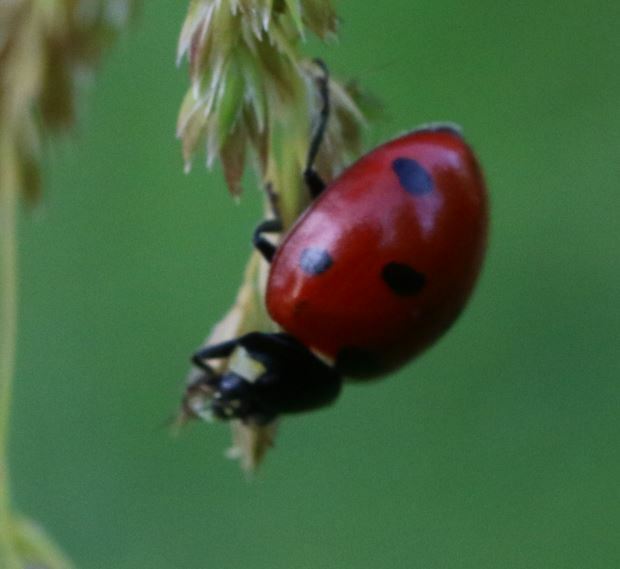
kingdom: Animalia
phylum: Arthropoda
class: Insecta
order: Coleoptera
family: Coccinellidae
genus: Coccinella
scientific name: Coccinella septempunctata
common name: Sevenspotted lady beetle
